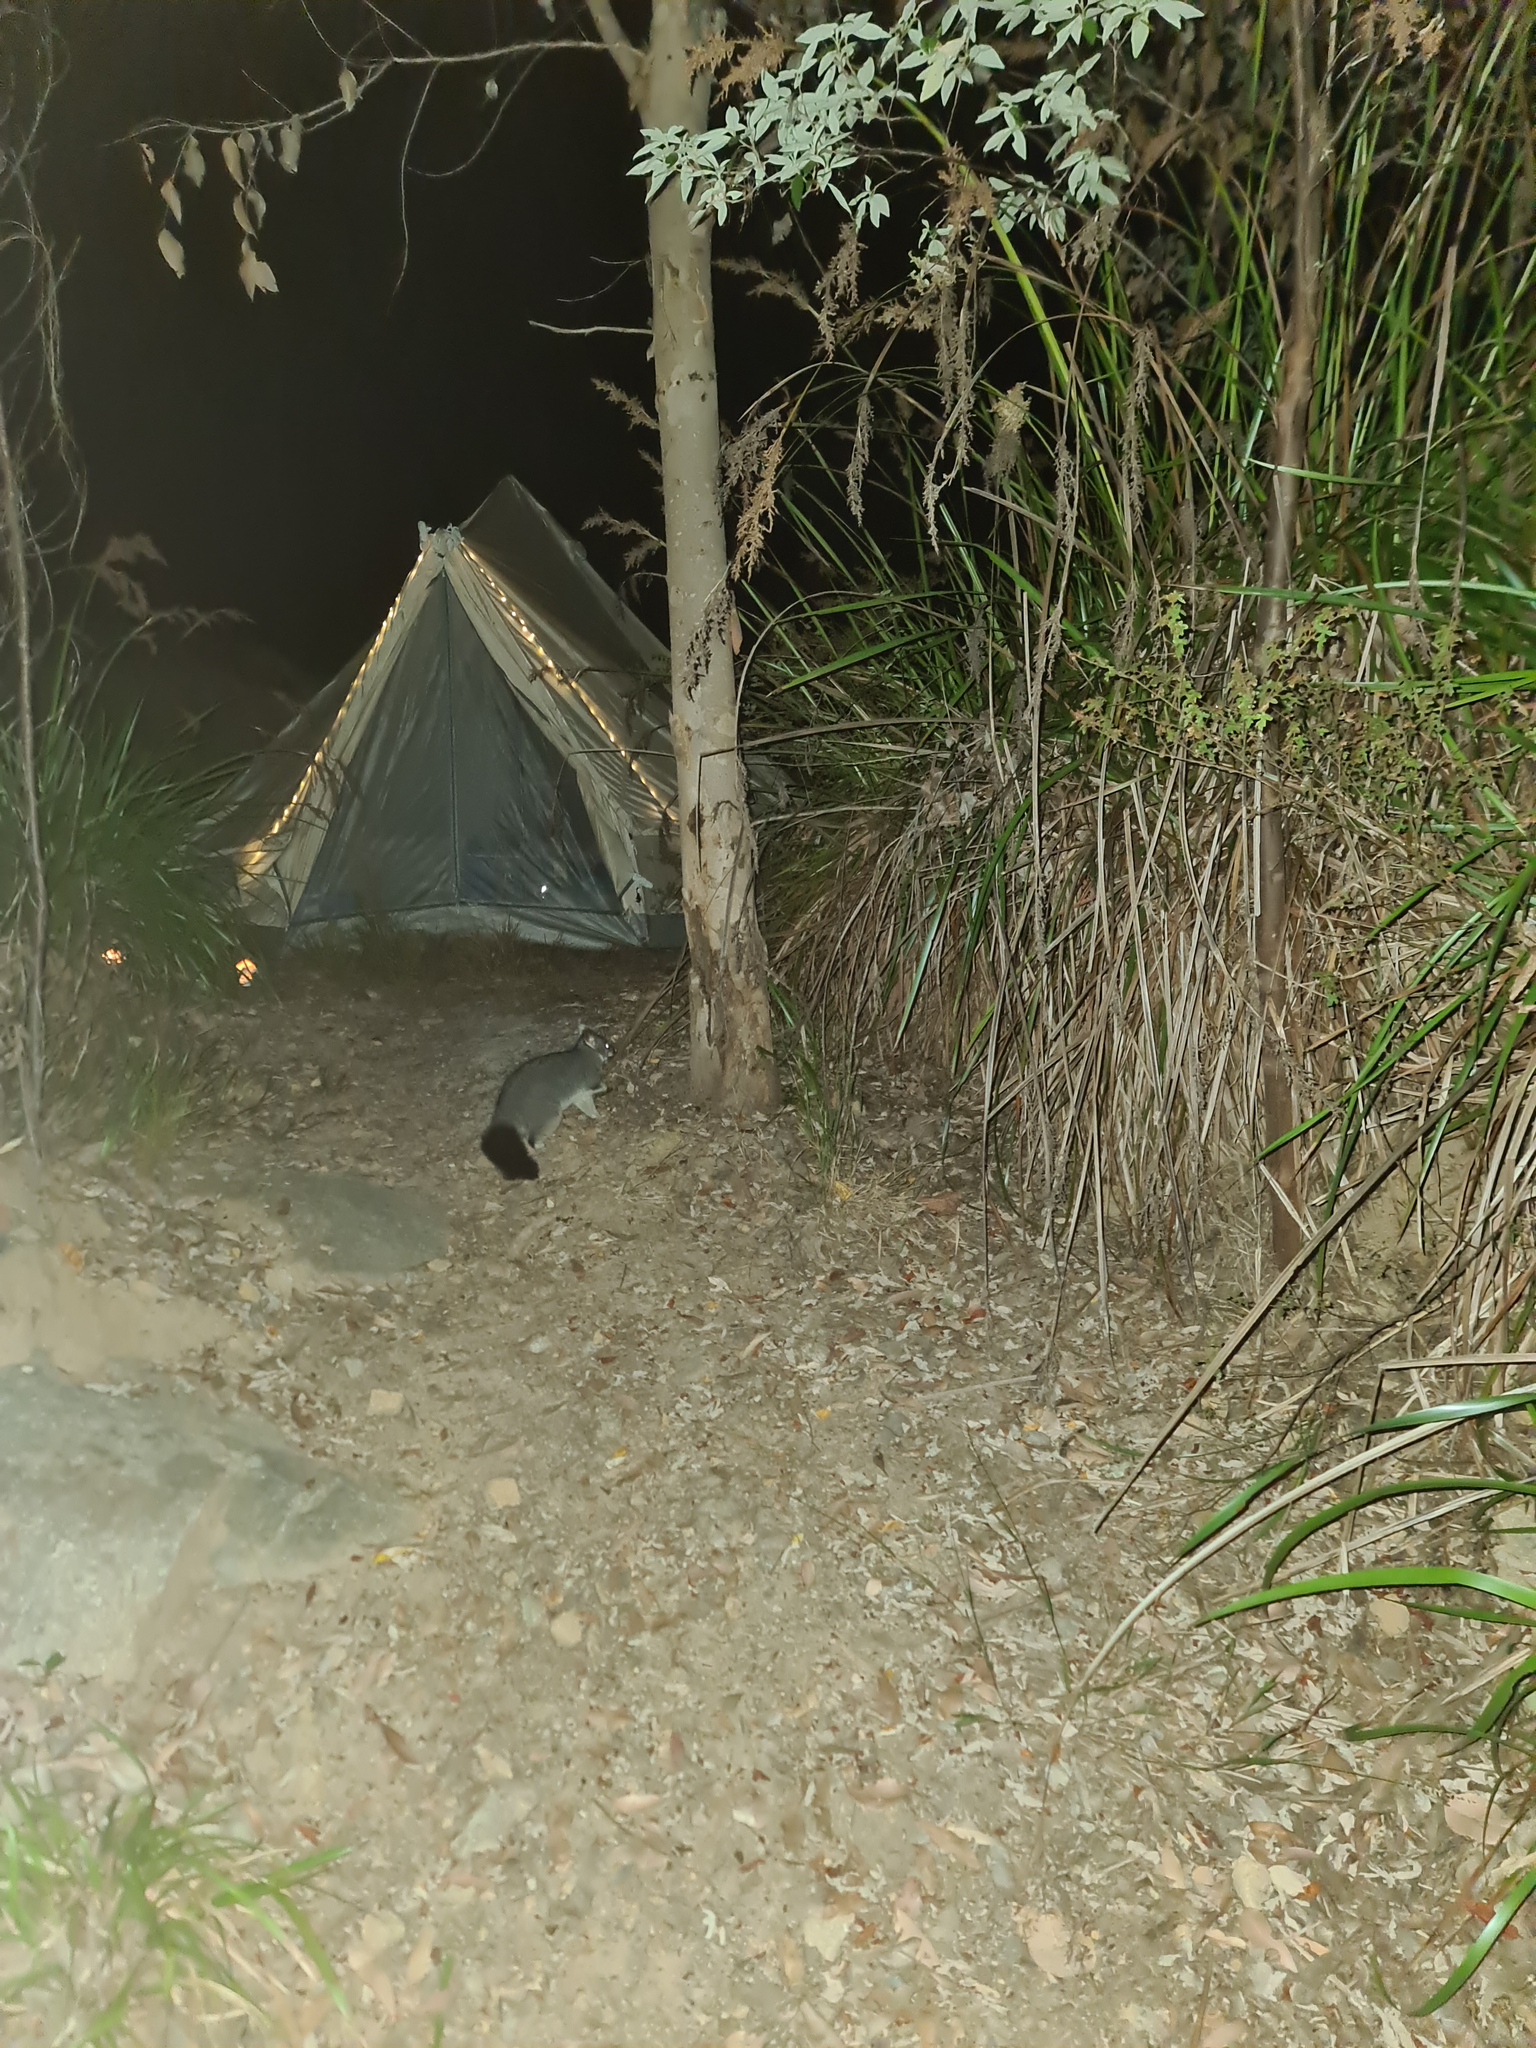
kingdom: Animalia
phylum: Chordata
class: Mammalia
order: Diprotodontia
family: Phalangeridae
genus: Trichosurus
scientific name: Trichosurus vulpecula
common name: Common brushtail
